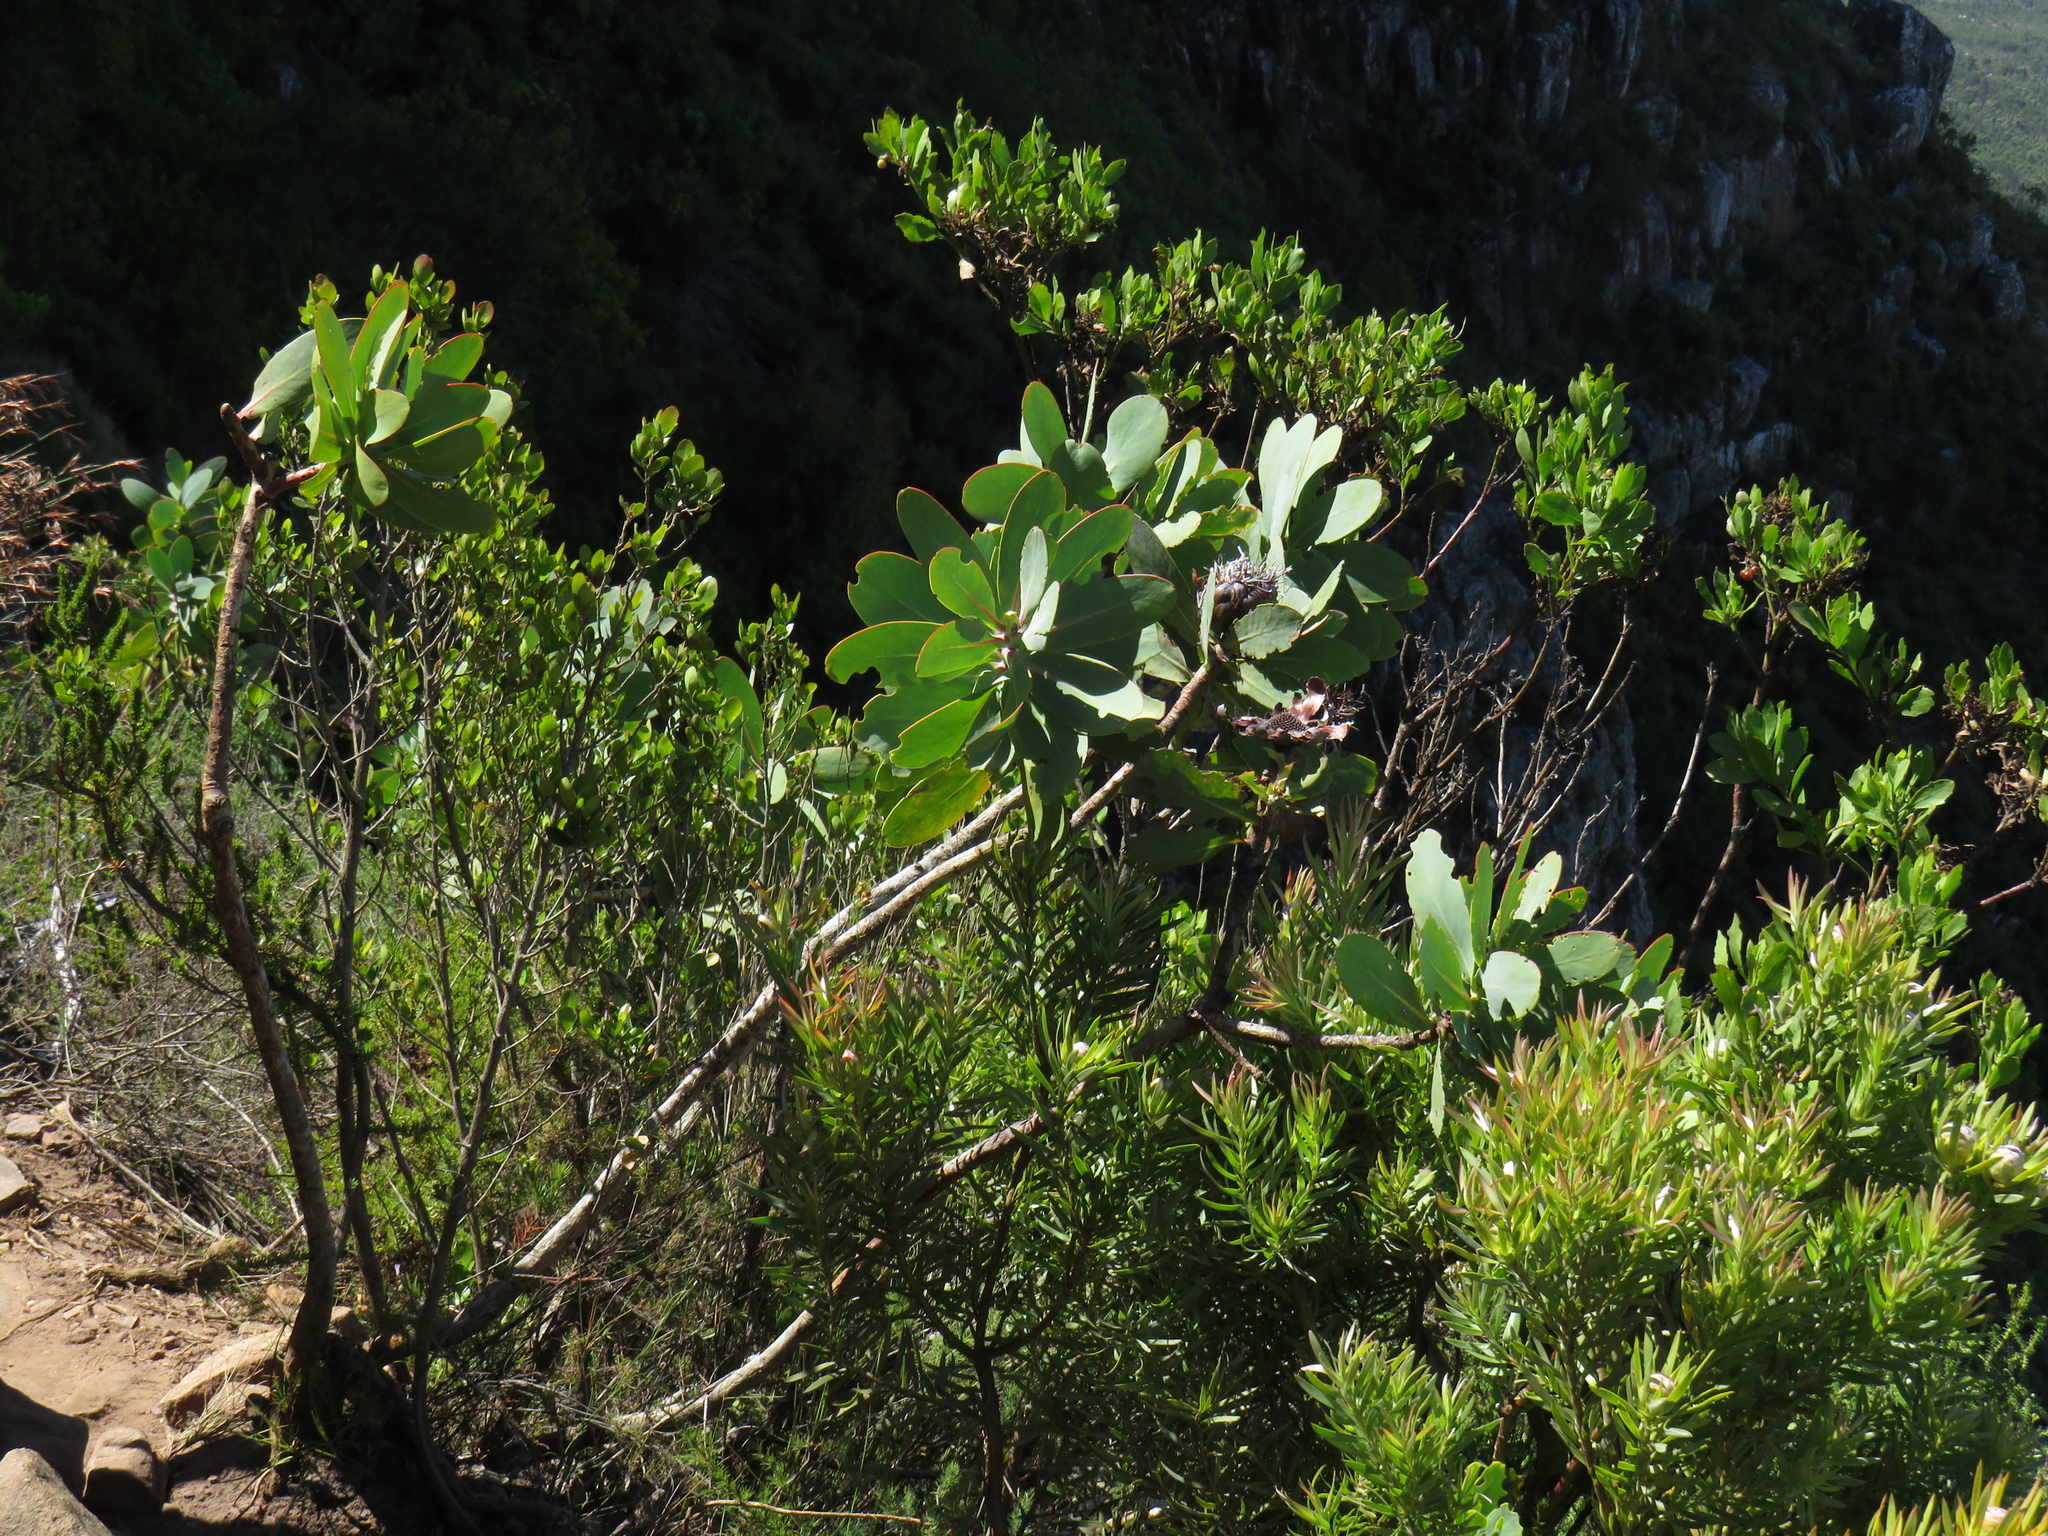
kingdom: Plantae
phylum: Tracheophyta
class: Magnoliopsida
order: Proteales
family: Proteaceae
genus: Protea
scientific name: Protea nitida
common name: Tree protea
